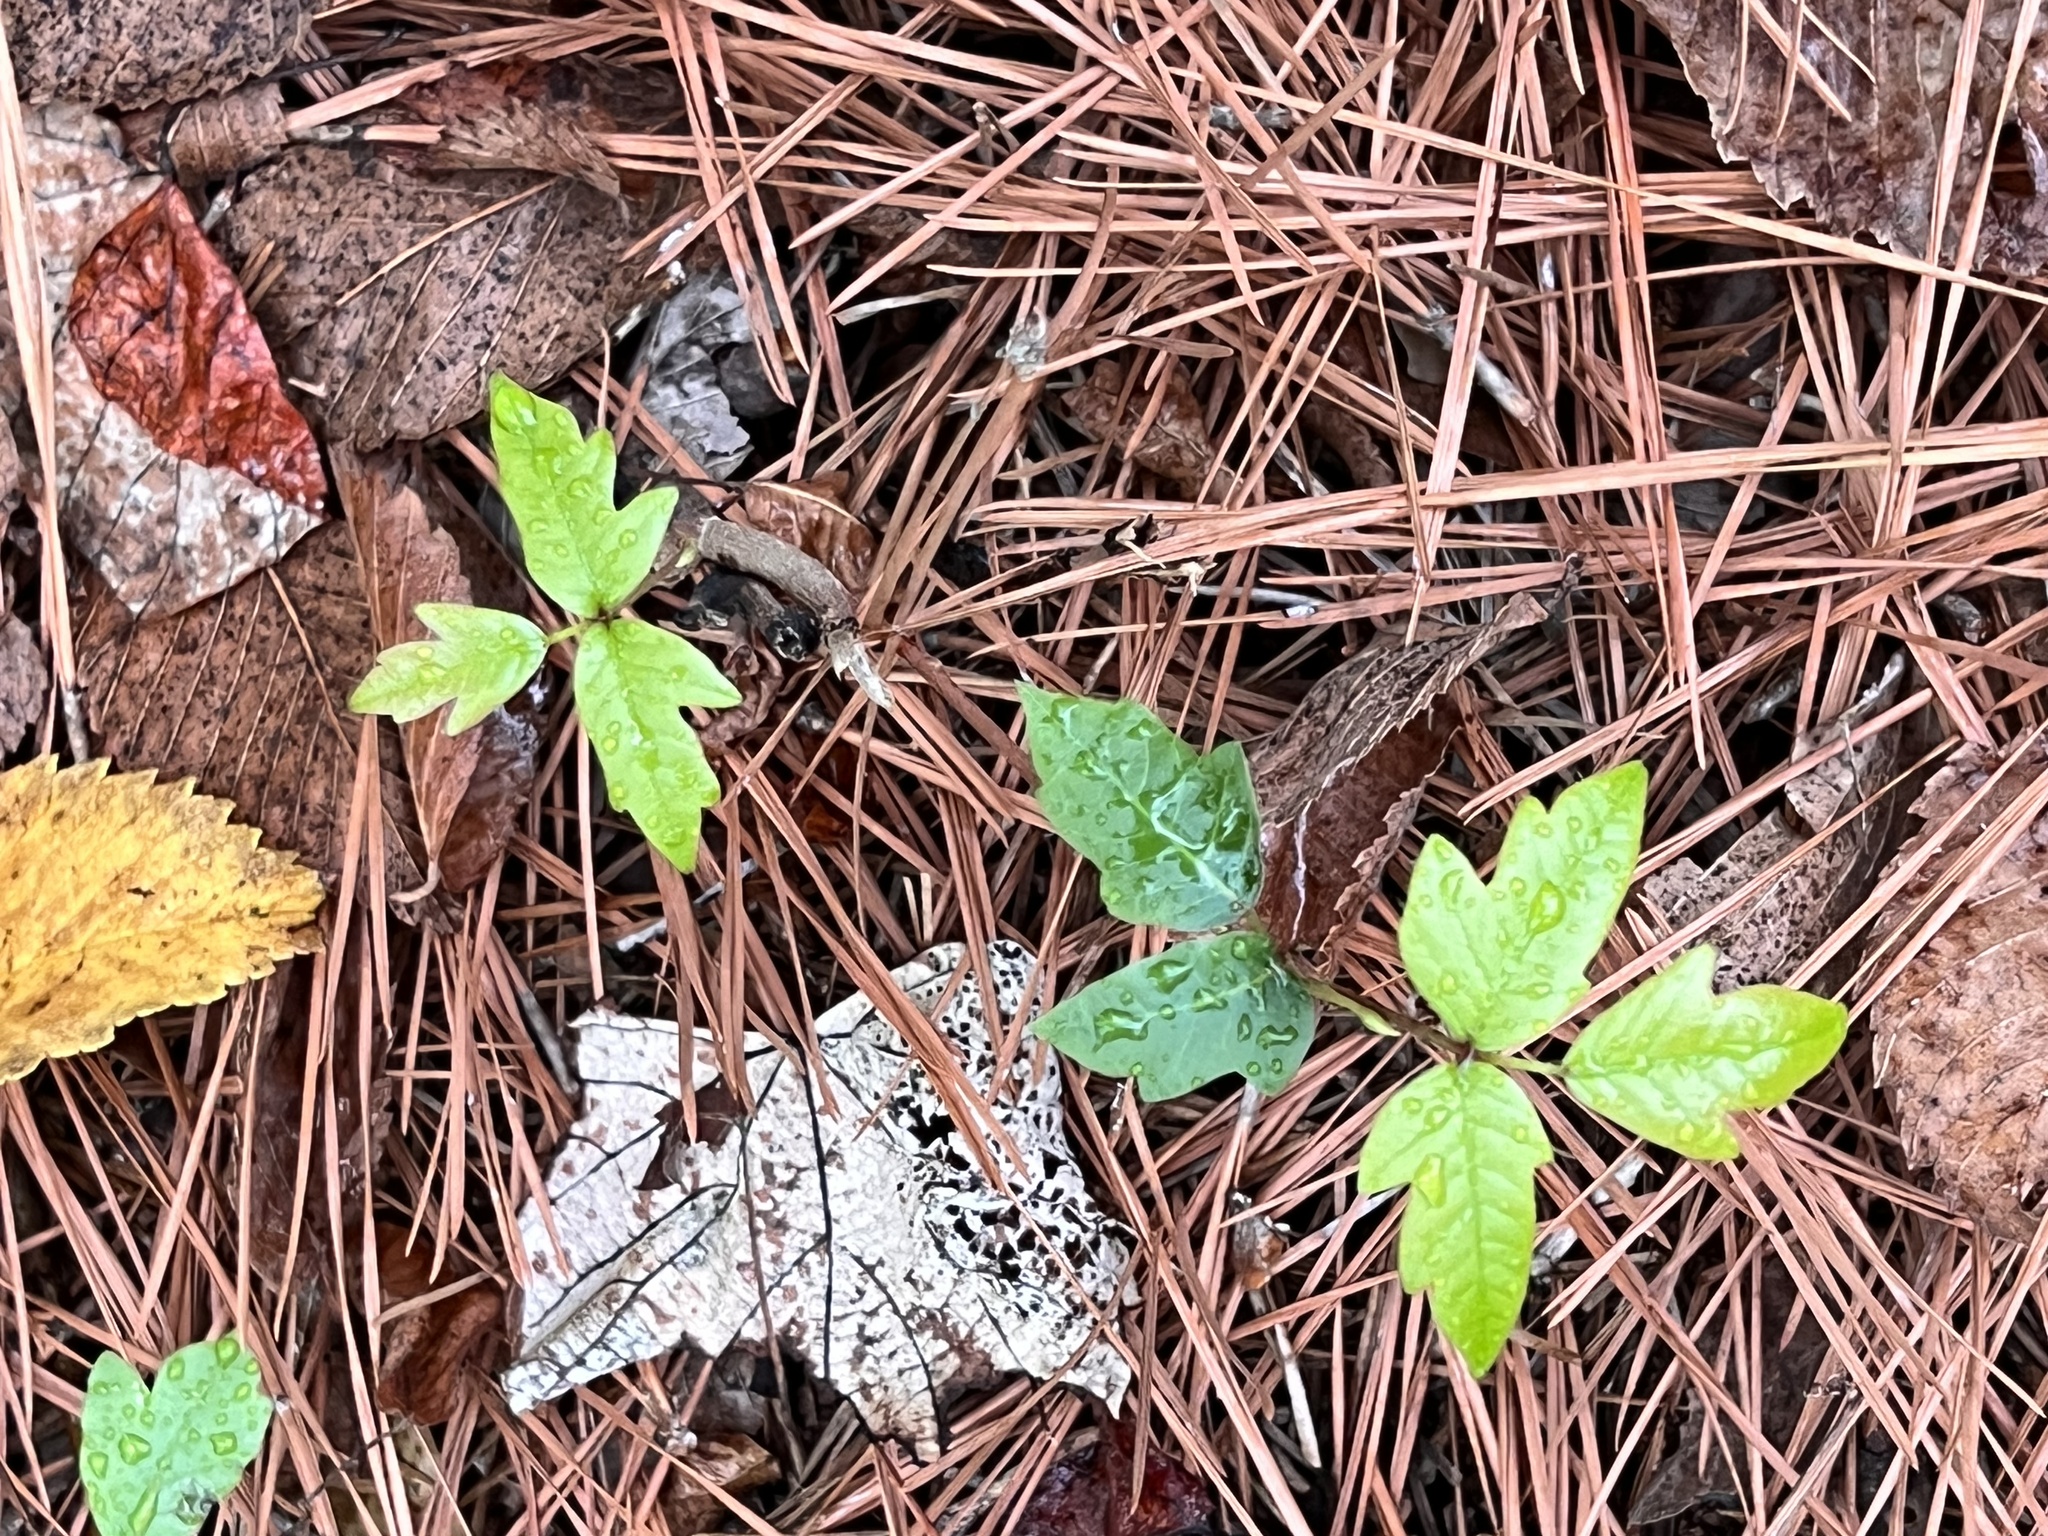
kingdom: Plantae
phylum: Tracheophyta
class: Magnoliopsida
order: Sapindales
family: Anacardiaceae
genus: Toxicodendron
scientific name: Toxicodendron radicans
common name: Poison ivy
